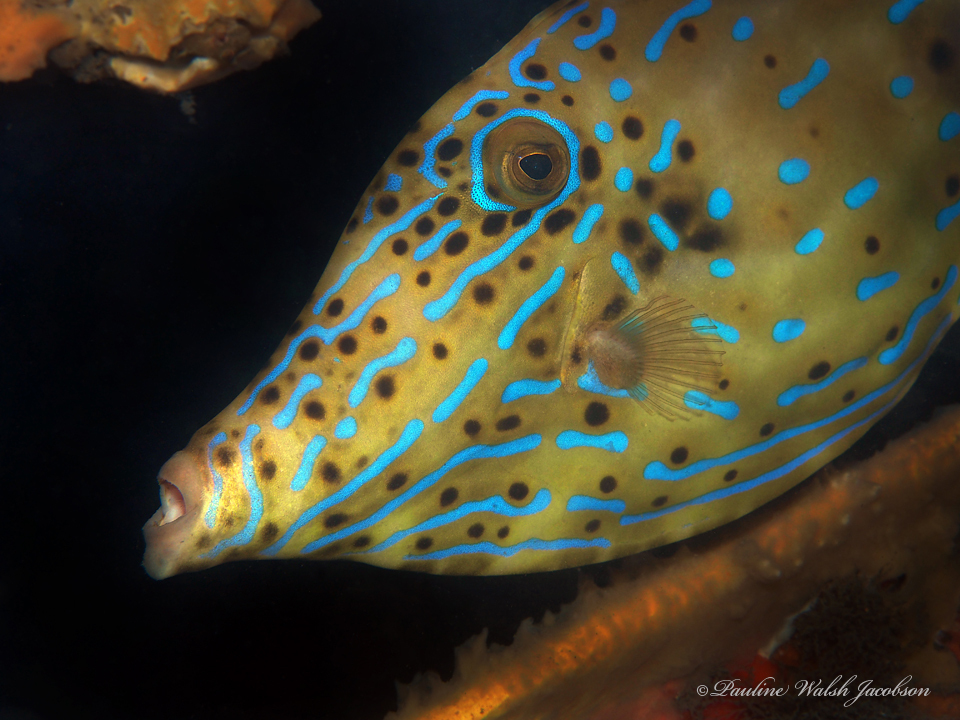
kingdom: Animalia
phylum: Chordata
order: Tetraodontiformes
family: Monacanthidae
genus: Aluterus
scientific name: Aluterus scriptus
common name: Scribbled leatherjacket filefish
